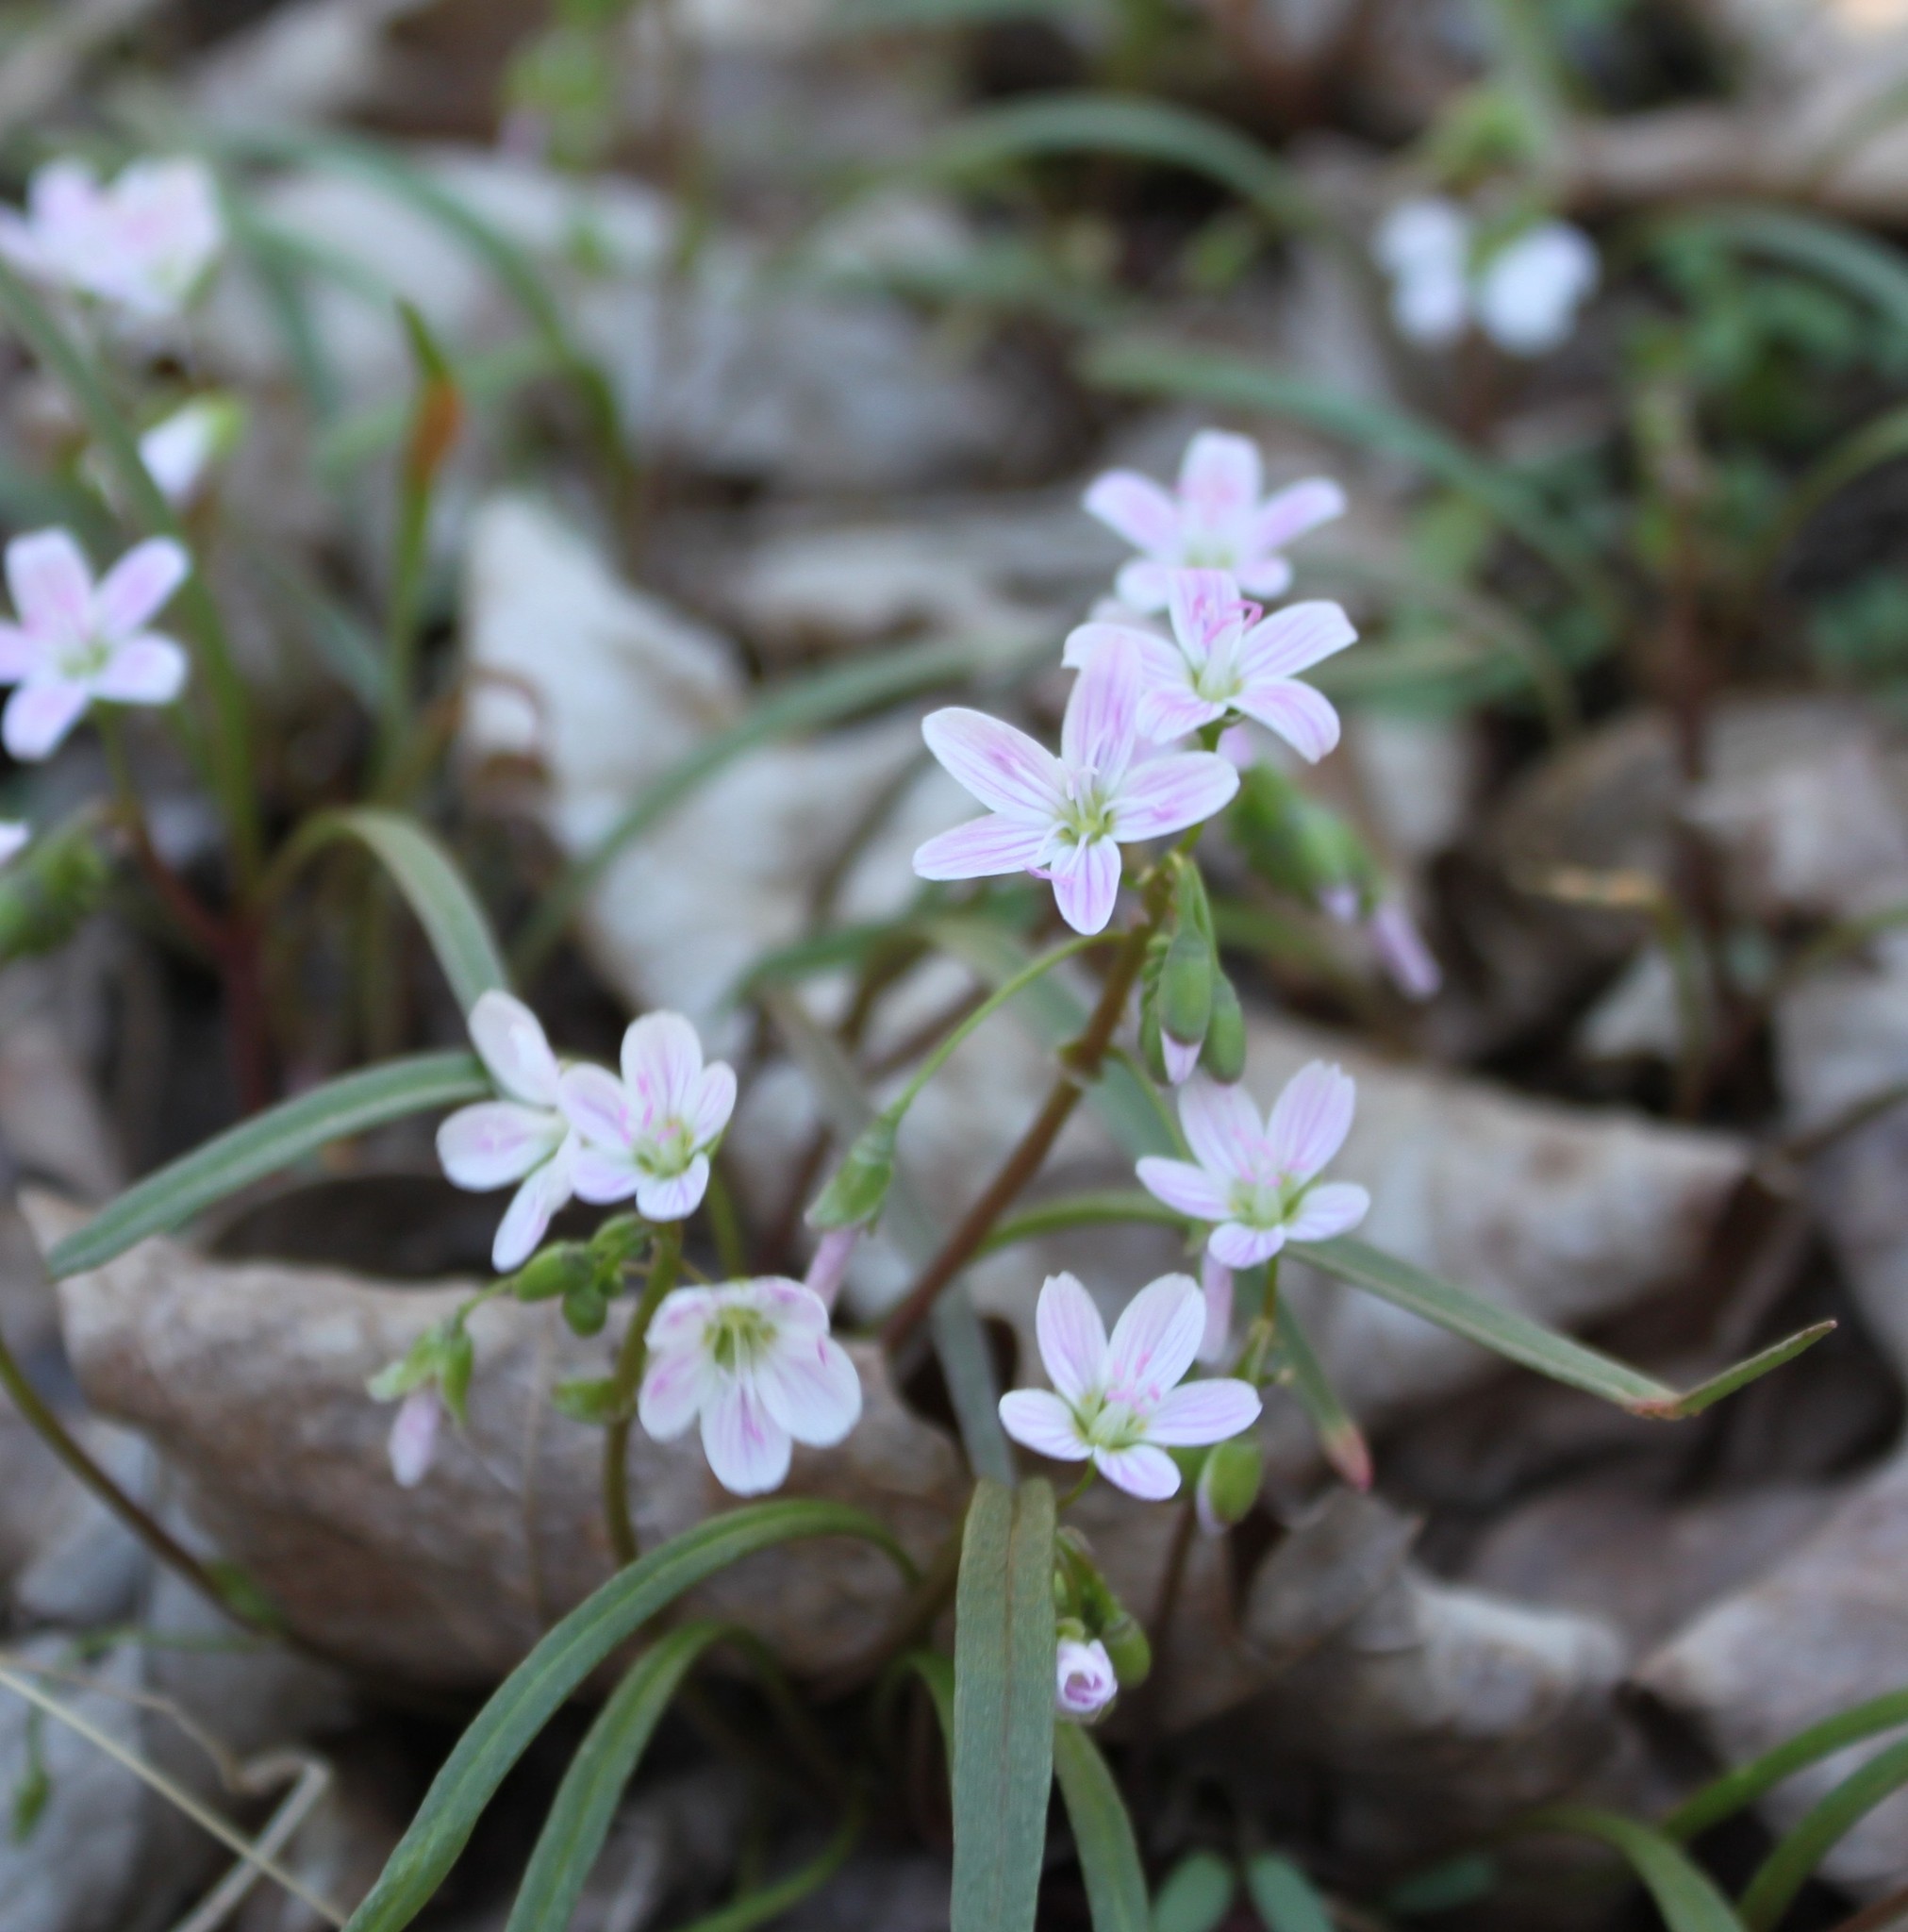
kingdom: Plantae
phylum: Tracheophyta
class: Magnoliopsida
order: Caryophyllales
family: Montiaceae
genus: Claytonia
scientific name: Claytonia virginica
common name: Virginia springbeauty
